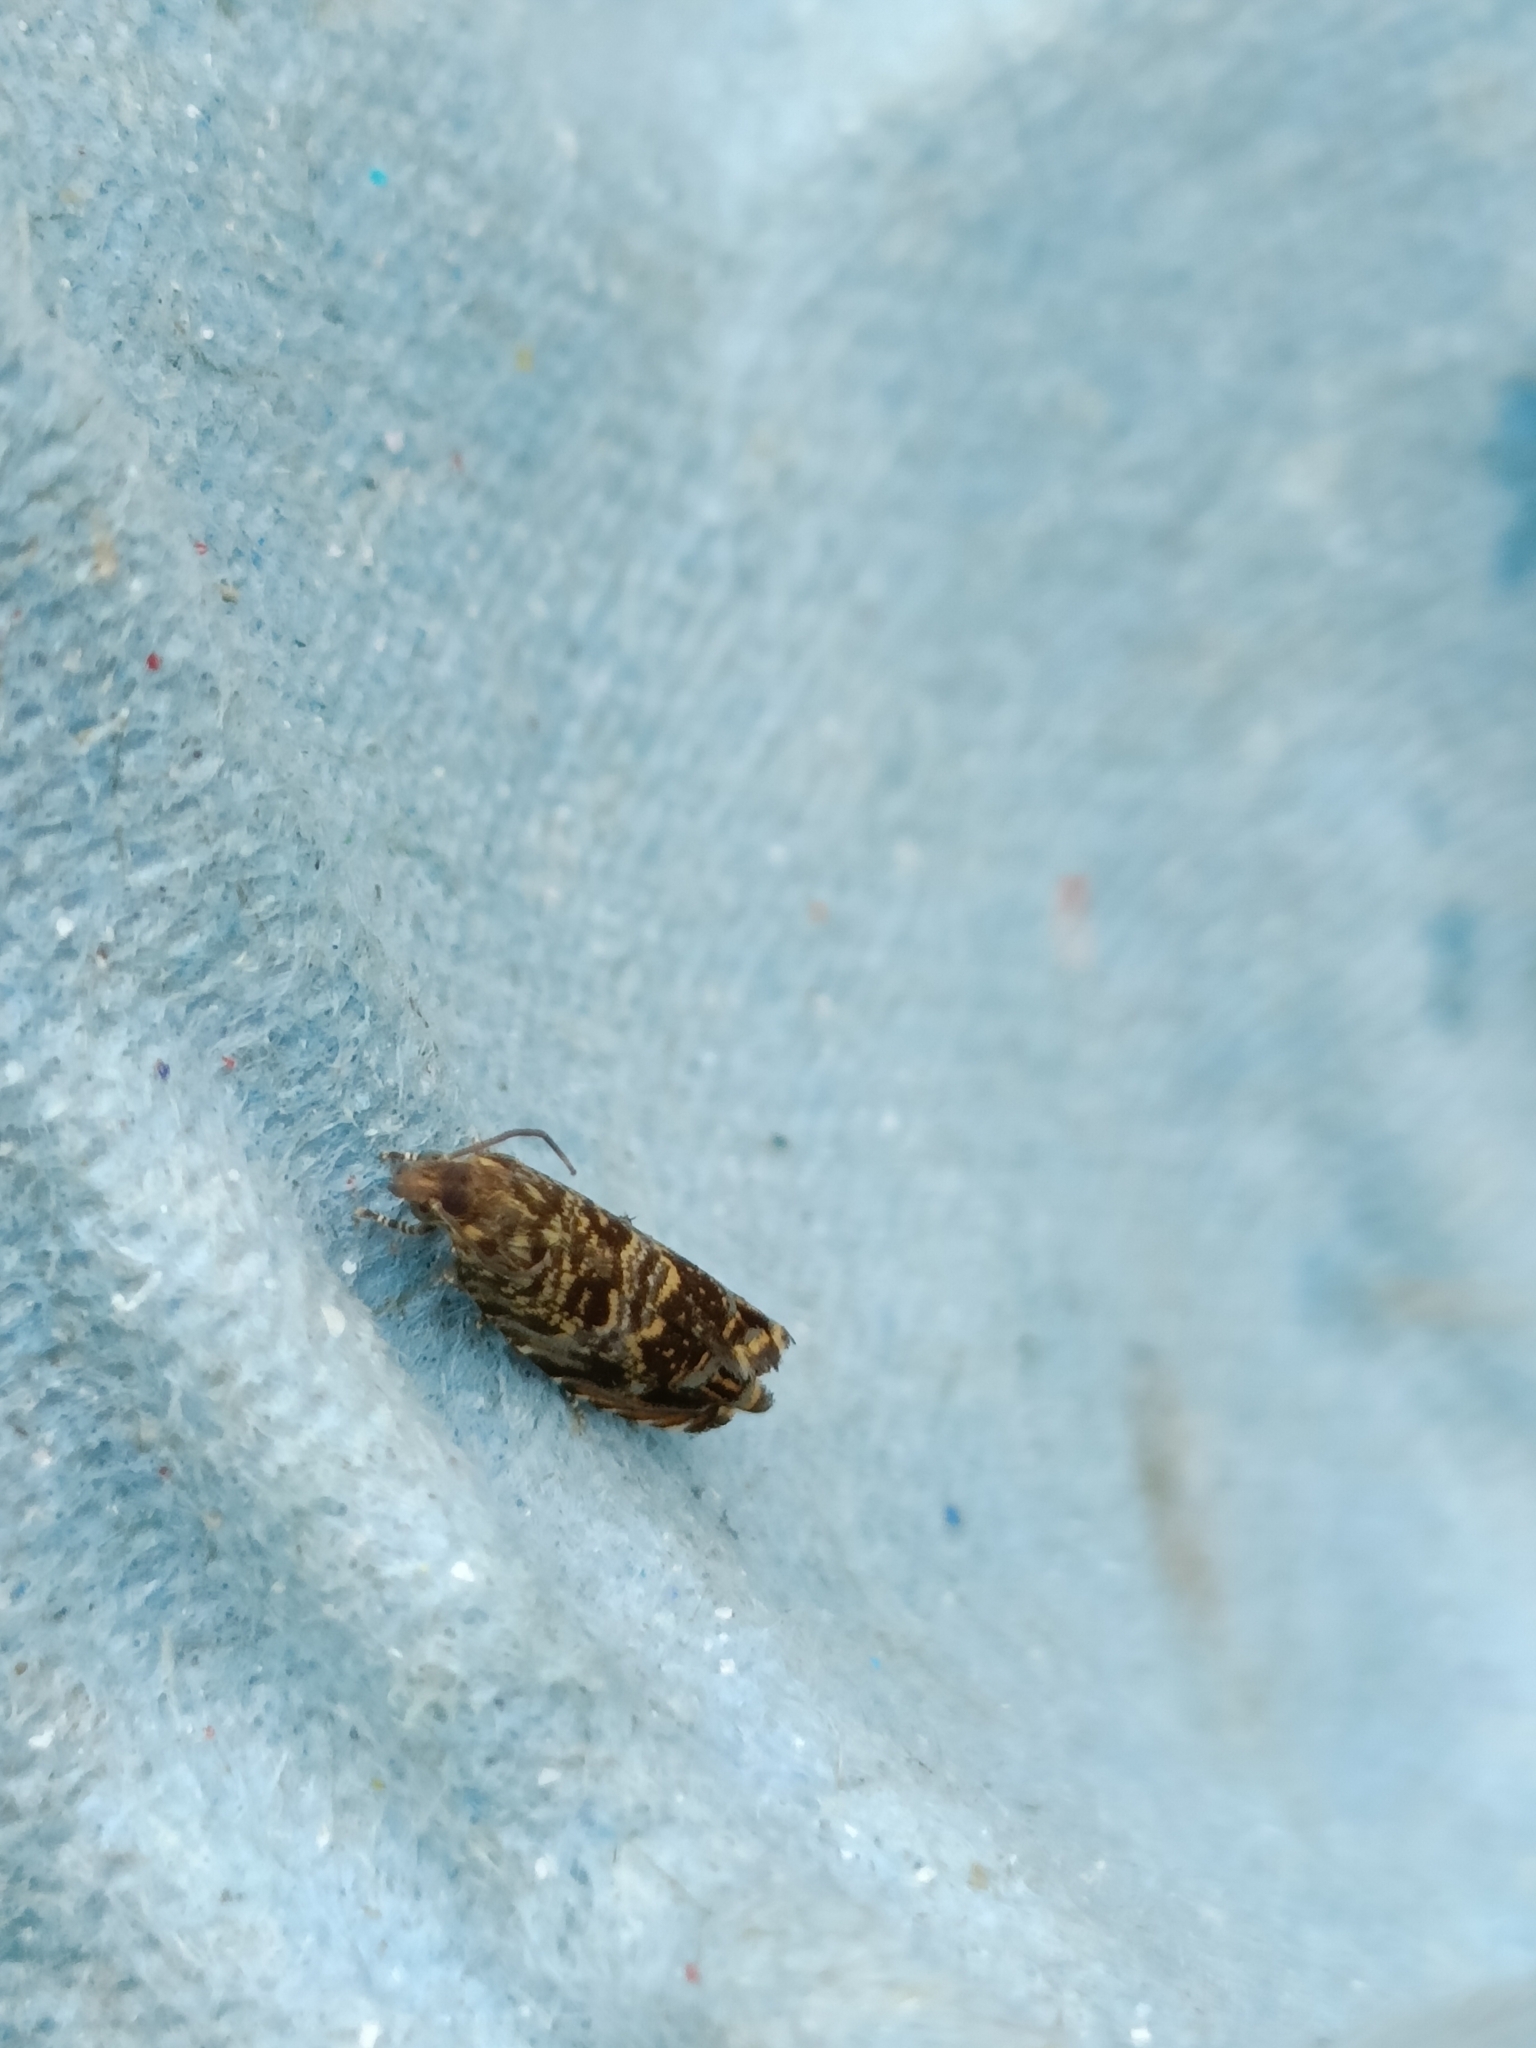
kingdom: Animalia
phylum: Arthropoda
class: Insecta
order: Lepidoptera
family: Tortricidae
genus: Enarmonia
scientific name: Enarmonia formosana
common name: Cherry bark tortrix
